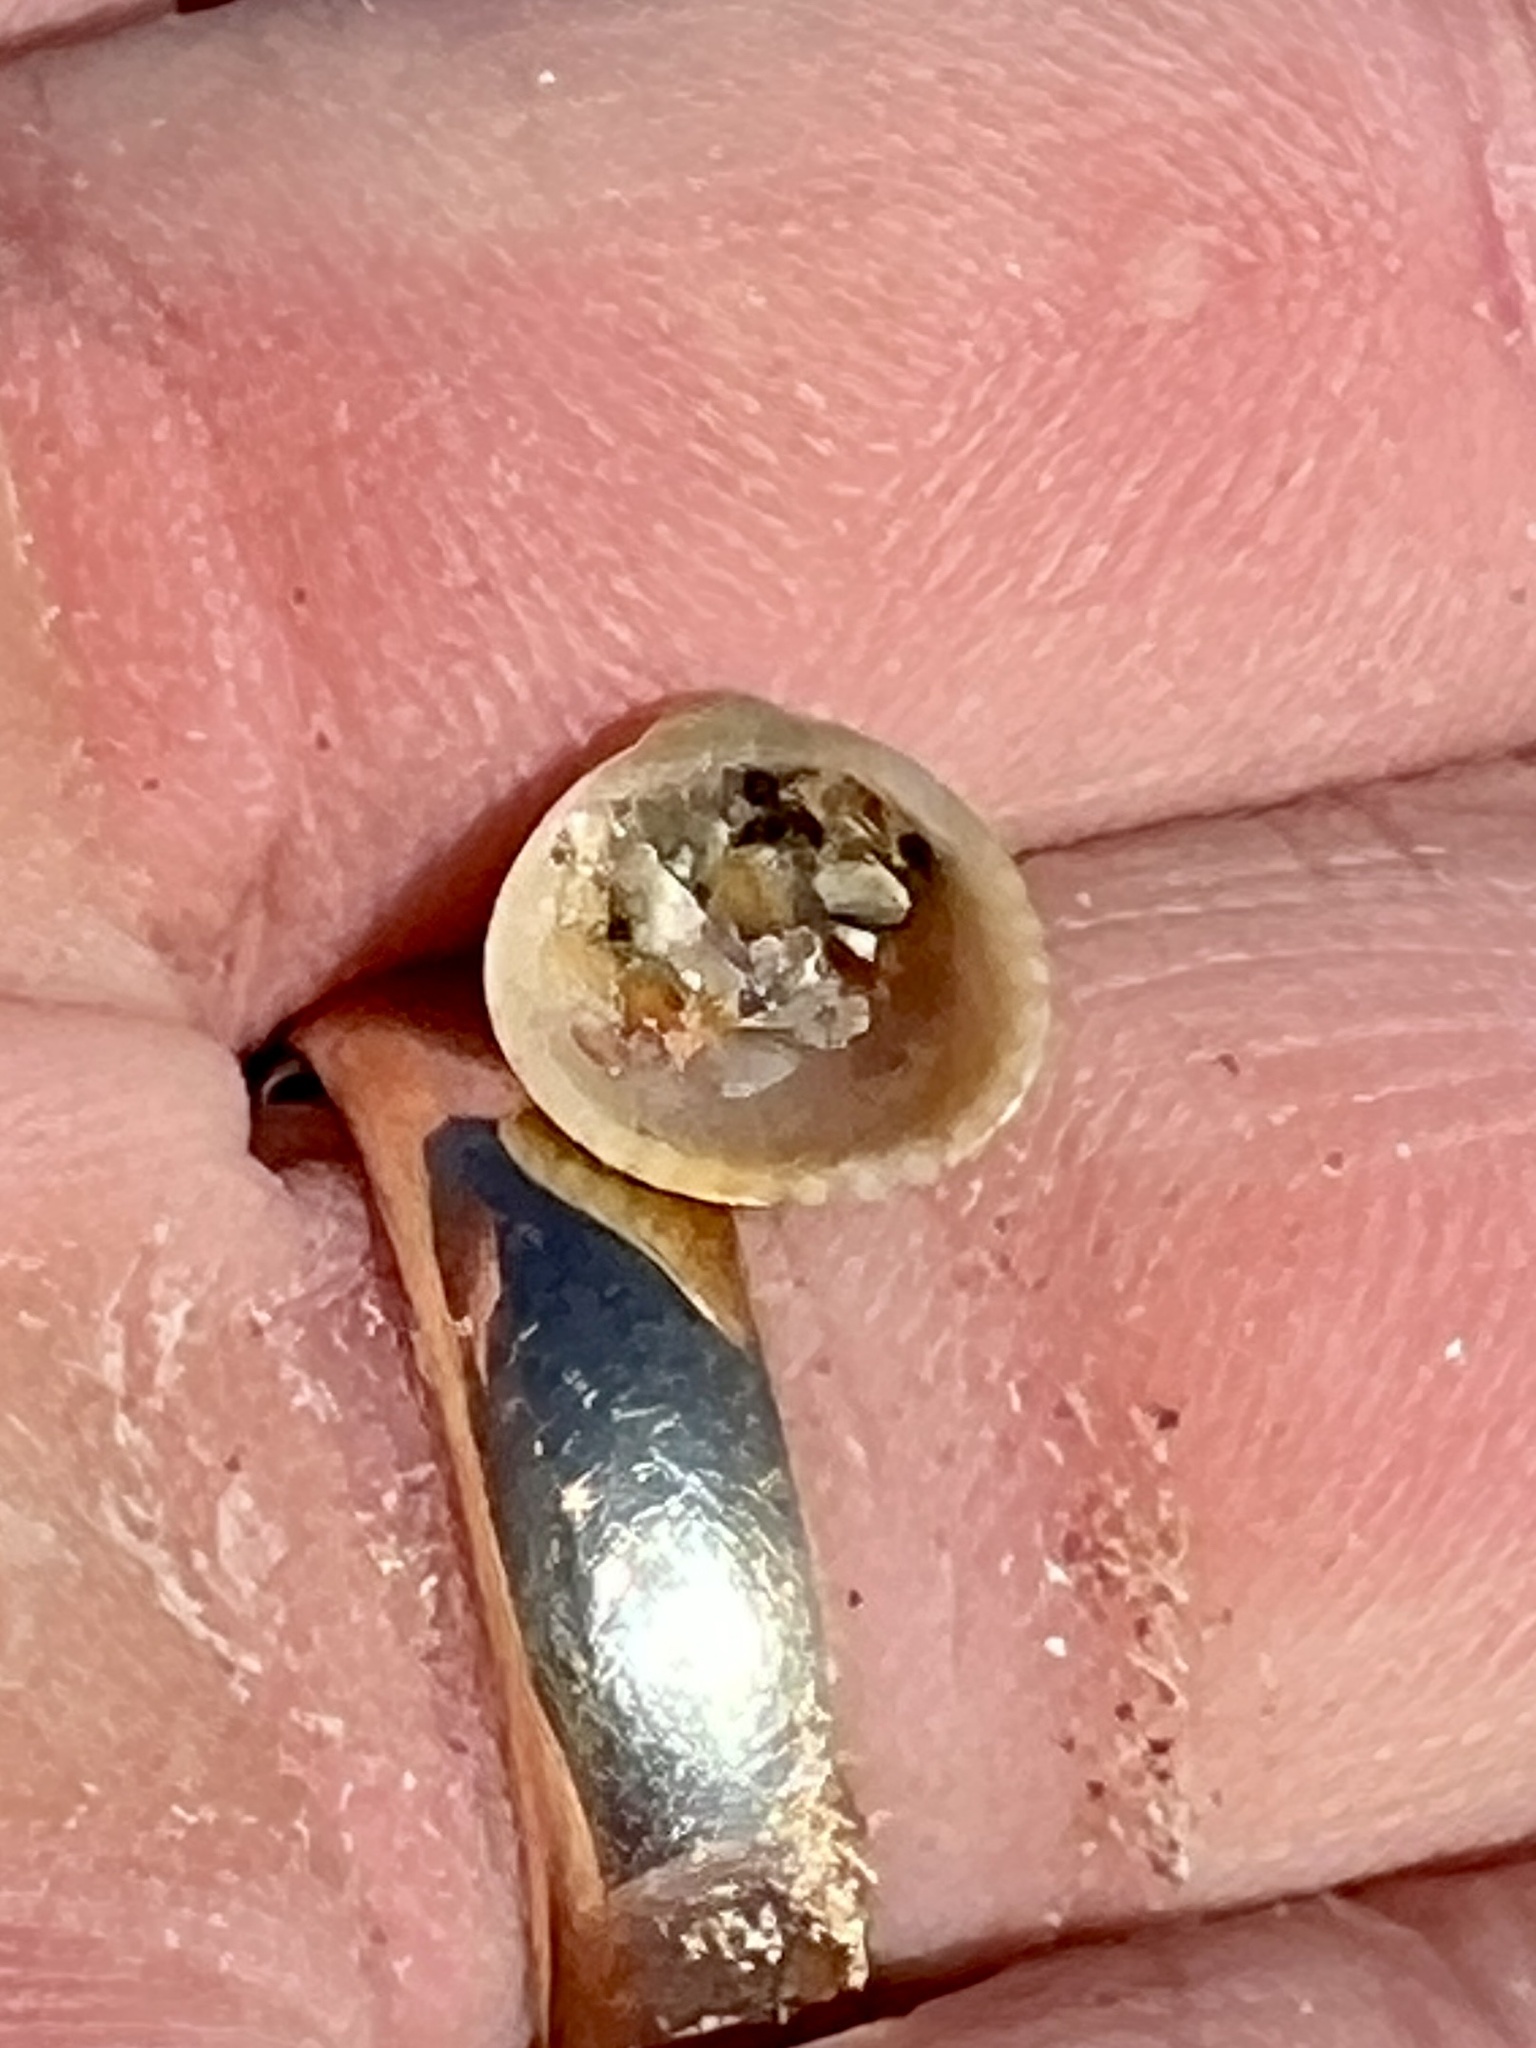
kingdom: Animalia
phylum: Mollusca
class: Bivalvia
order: Arcida
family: Arcidae
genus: Anadara
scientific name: Anadara chemnitzii
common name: Chemnitz's triangular ark
